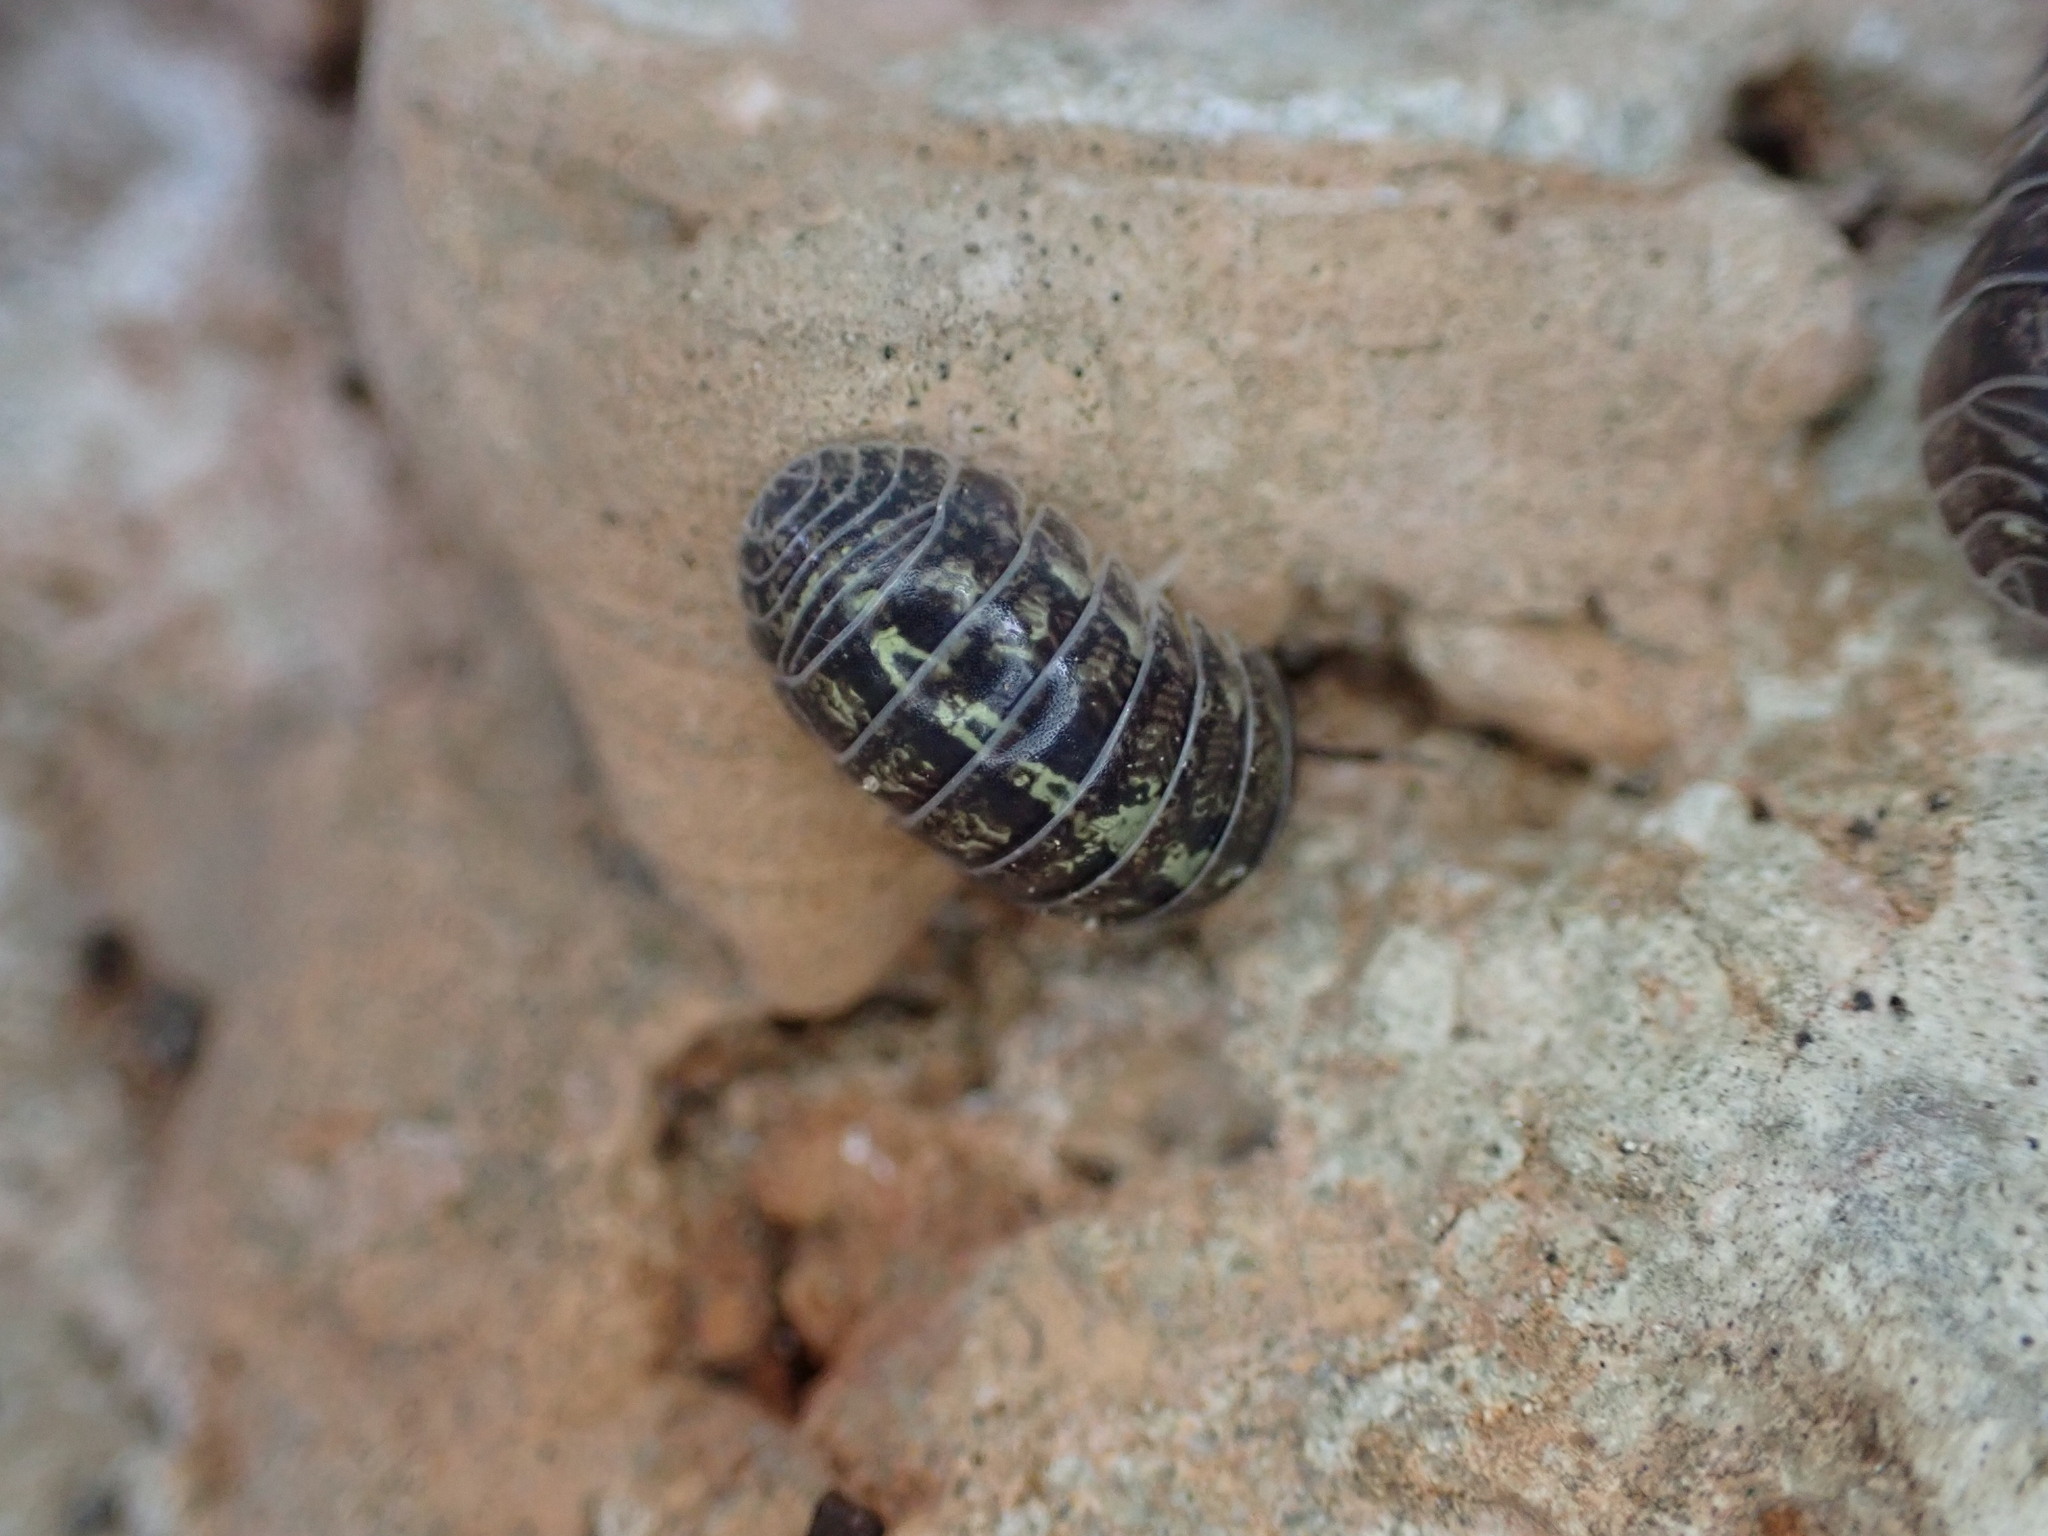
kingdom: Animalia
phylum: Arthropoda
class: Malacostraca
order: Isopoda
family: Armadillidiidae
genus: Armadillidium
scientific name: Armadillidium vulgare
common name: Common pill woodlouse
